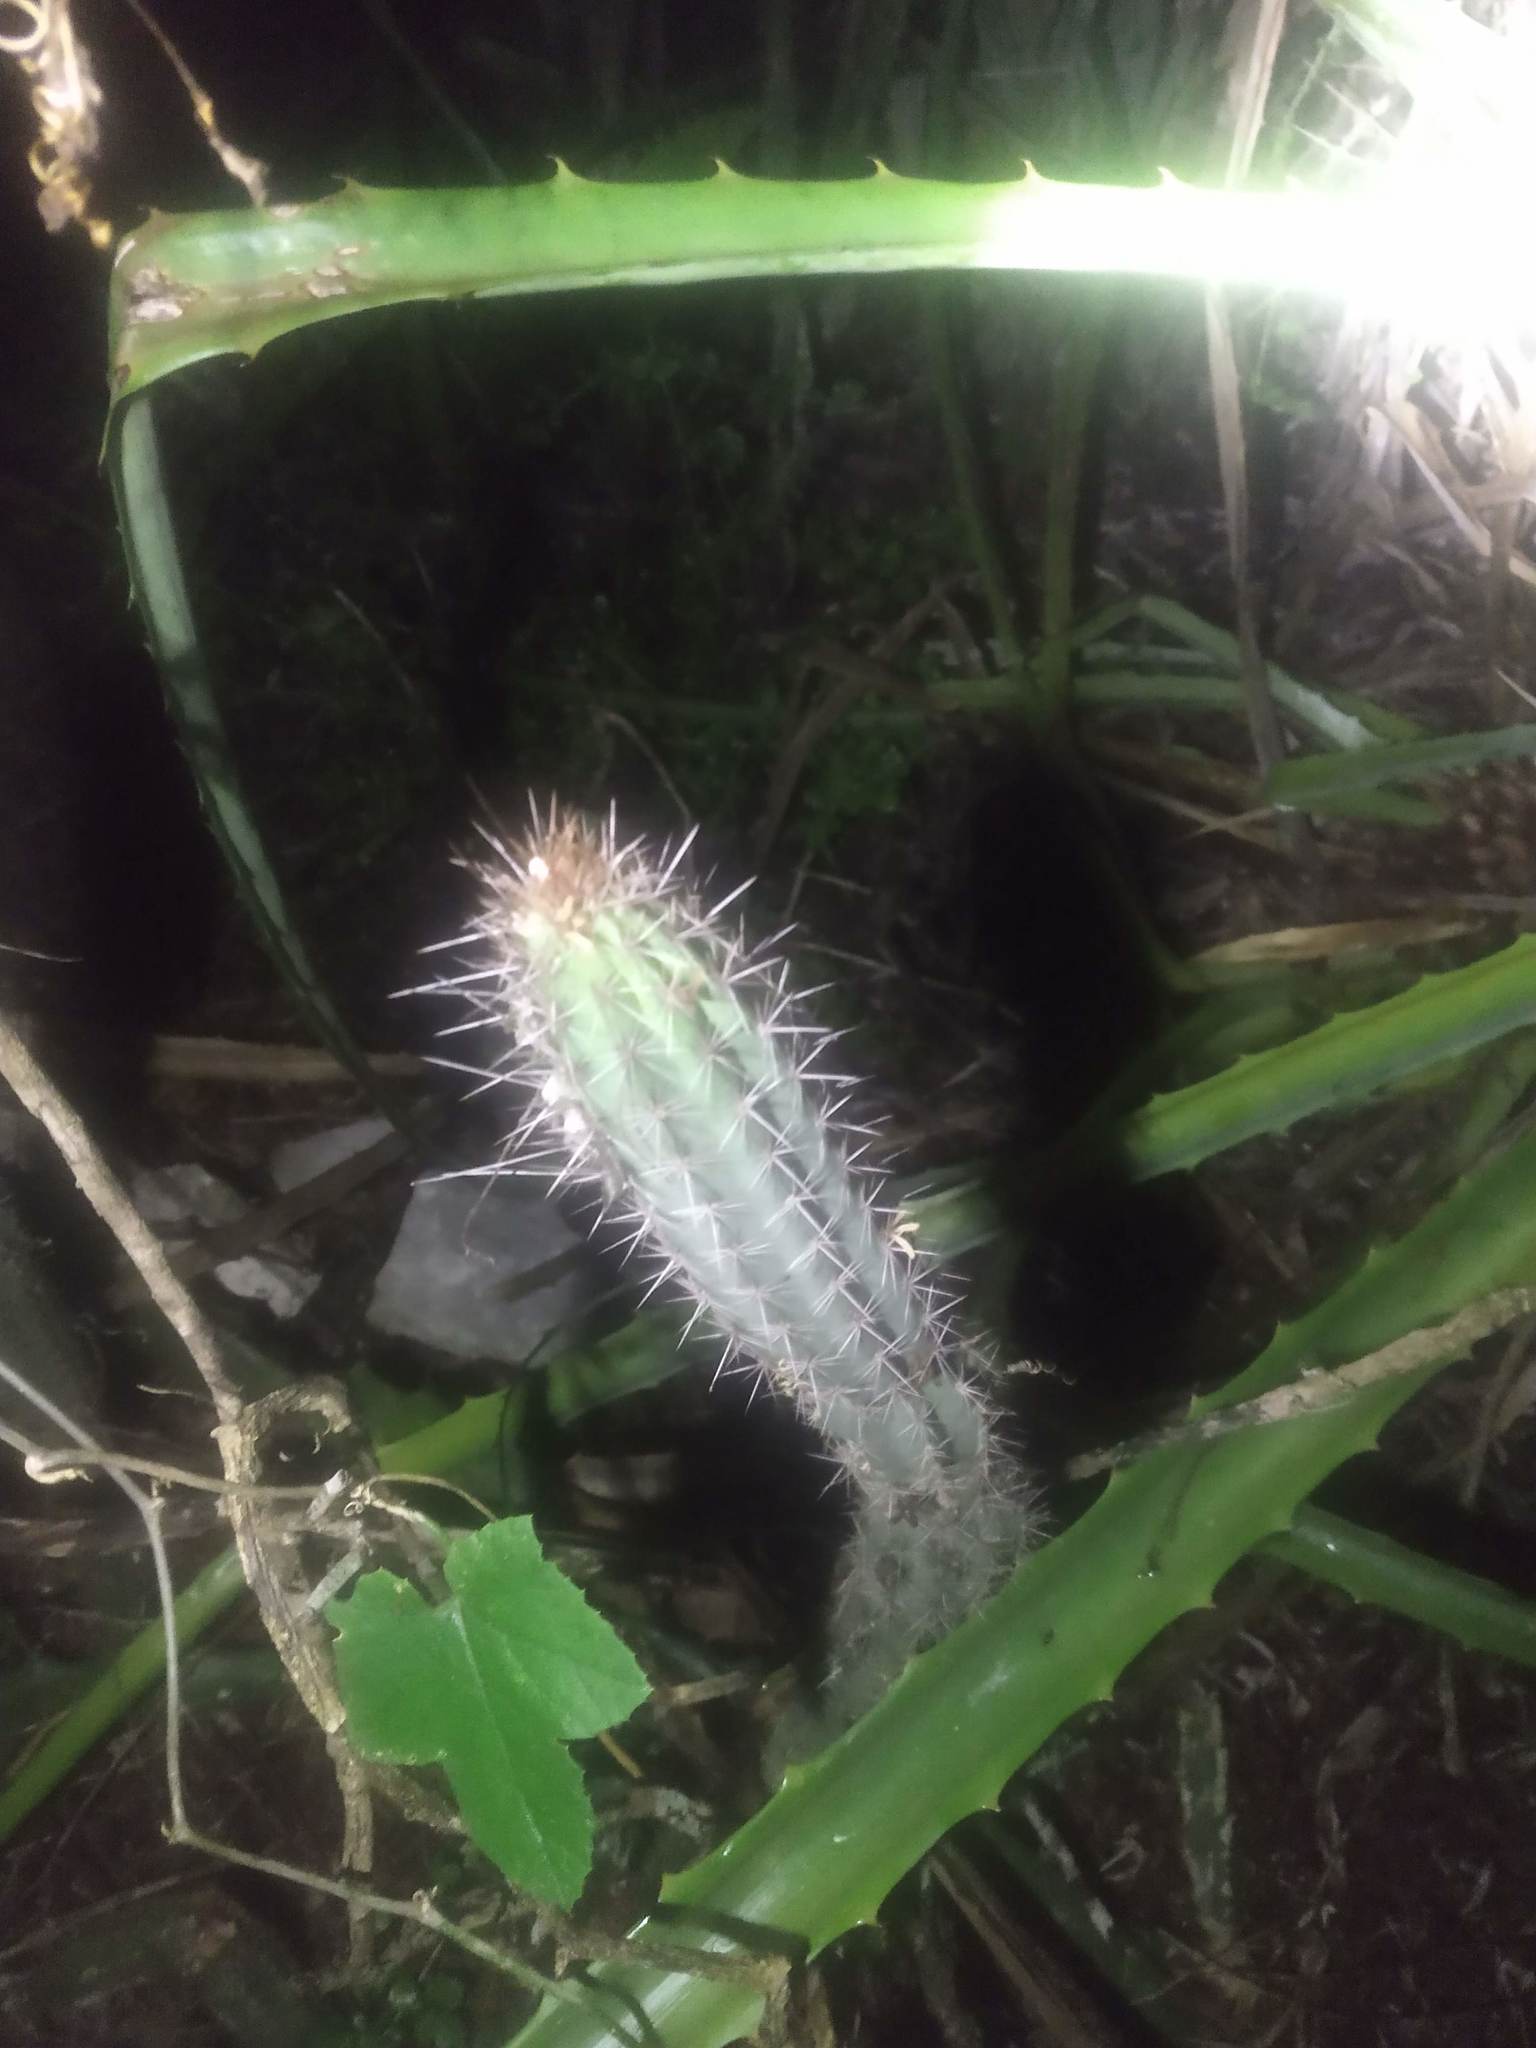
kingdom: Plantae
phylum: Tracheophyta
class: Magnoliopsida
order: Caryophyllales
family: Cactaceae
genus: Pilosocereus
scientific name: Pilosocereus gaumeri
